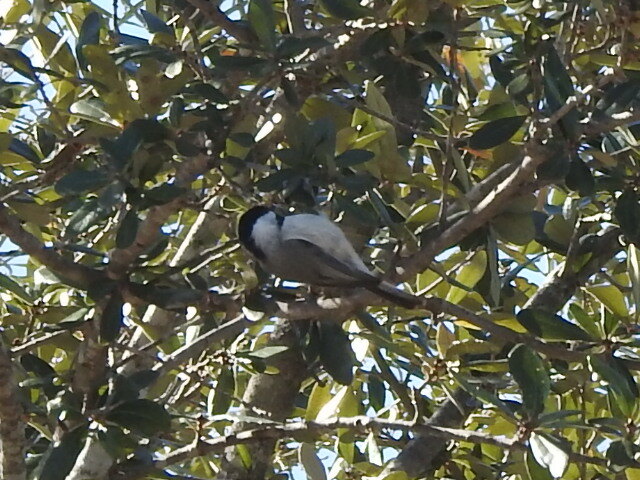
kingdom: Animalia
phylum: Chordata
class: Aves
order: Passeriformes
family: Paridae
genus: Poecile
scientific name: Poecile carolinensis
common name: Carolina chickadee
